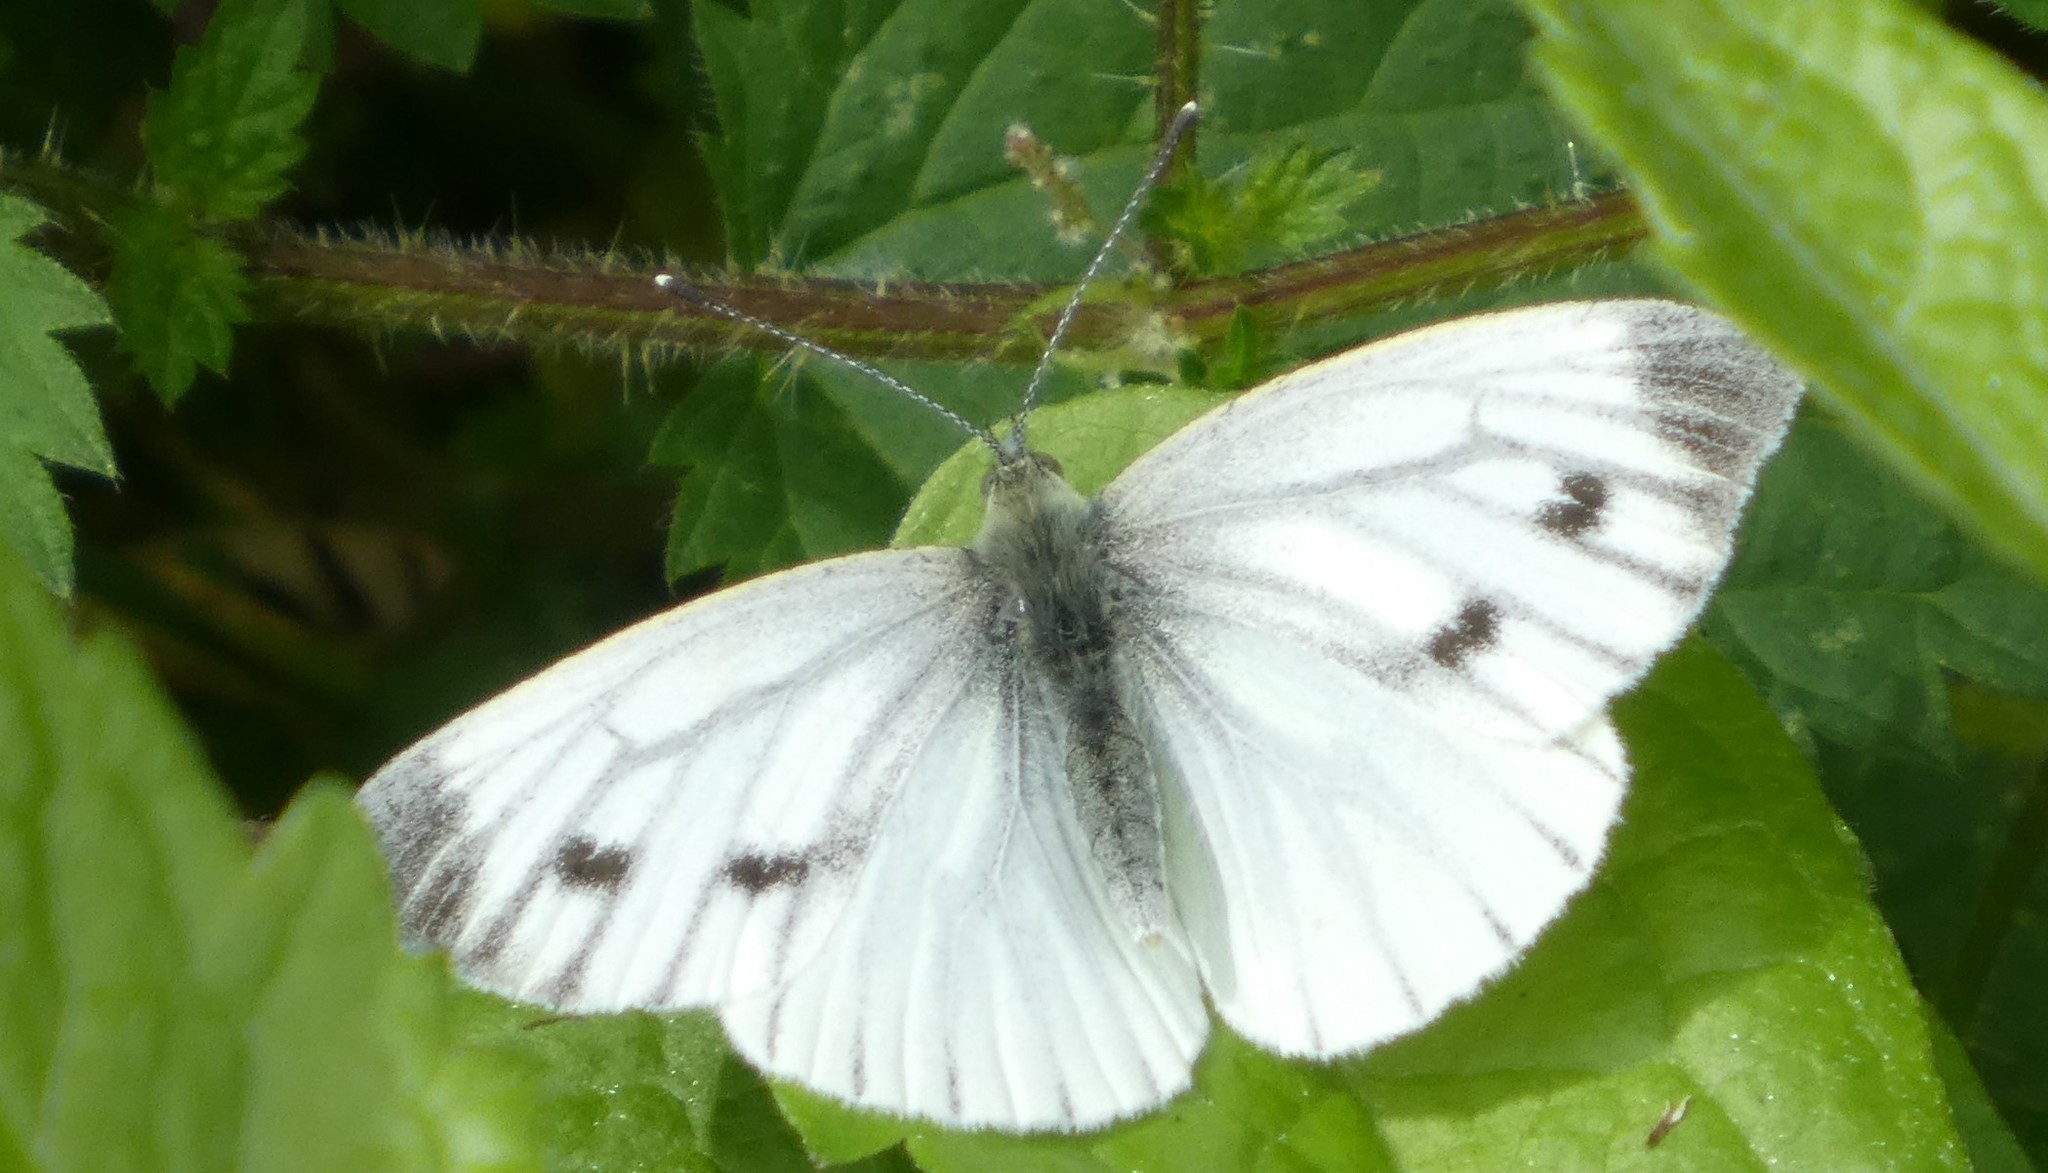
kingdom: Animalia
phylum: Arthropoda
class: Insecta
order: Lepidoptera
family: Pieridae
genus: Pieris
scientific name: Pieris napi
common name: Green-veined white
